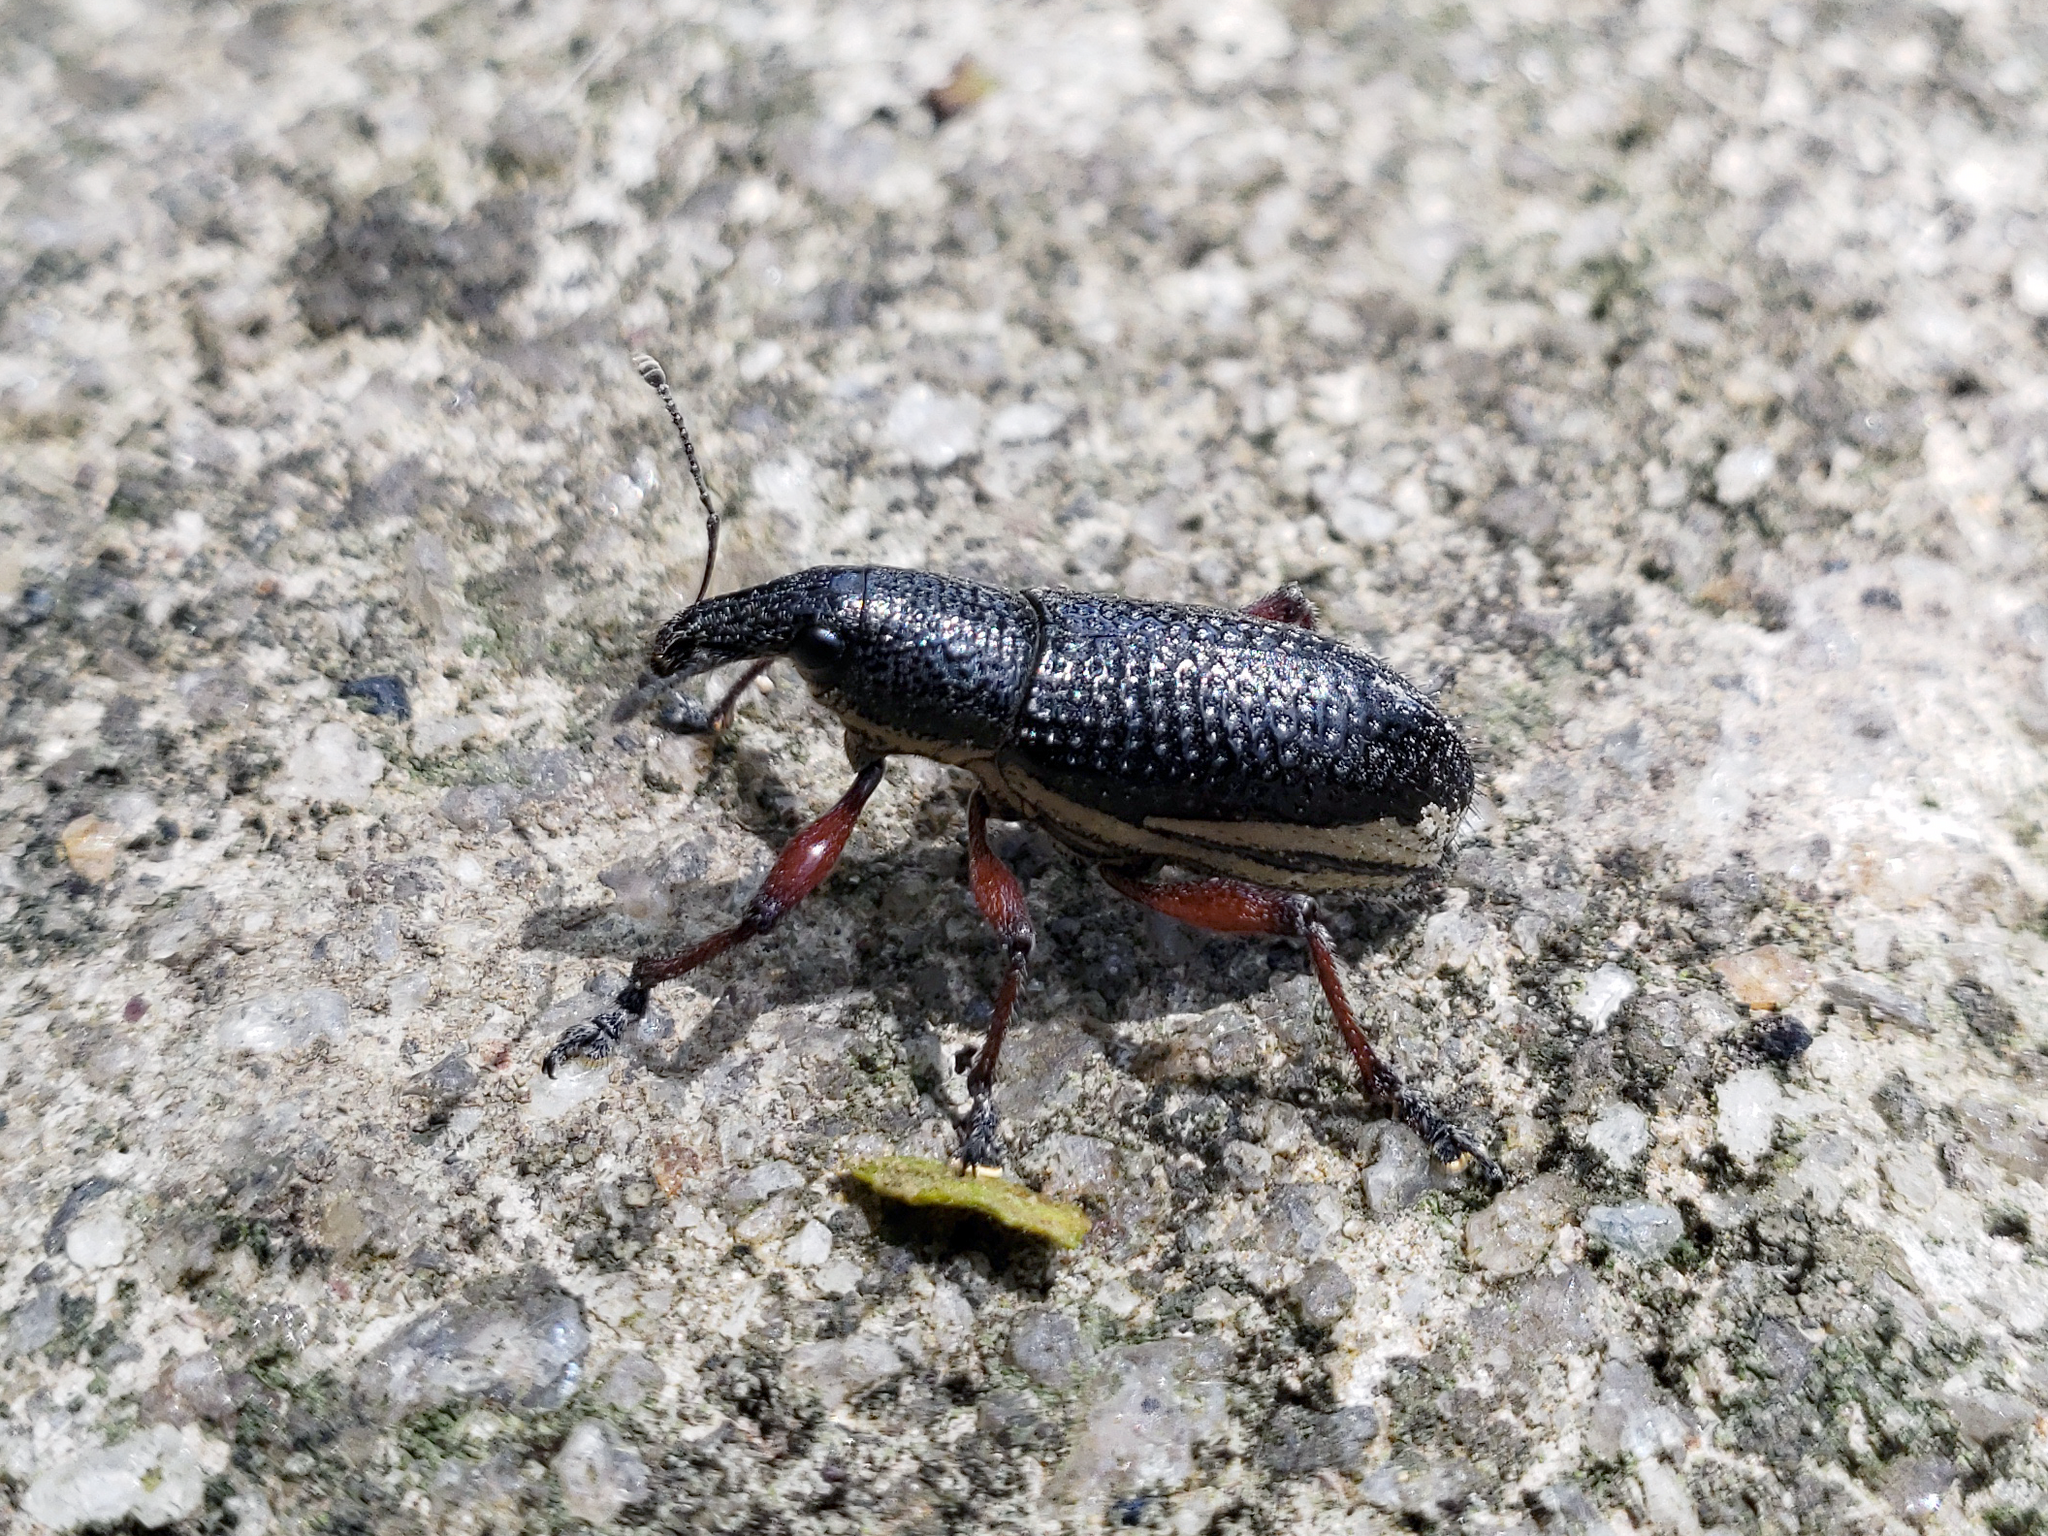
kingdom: Animalia
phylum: Arthropoda
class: Insecta
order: Coleoptera
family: Curculionidae
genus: Alocorhinus
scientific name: Alocorhinus curtisi
